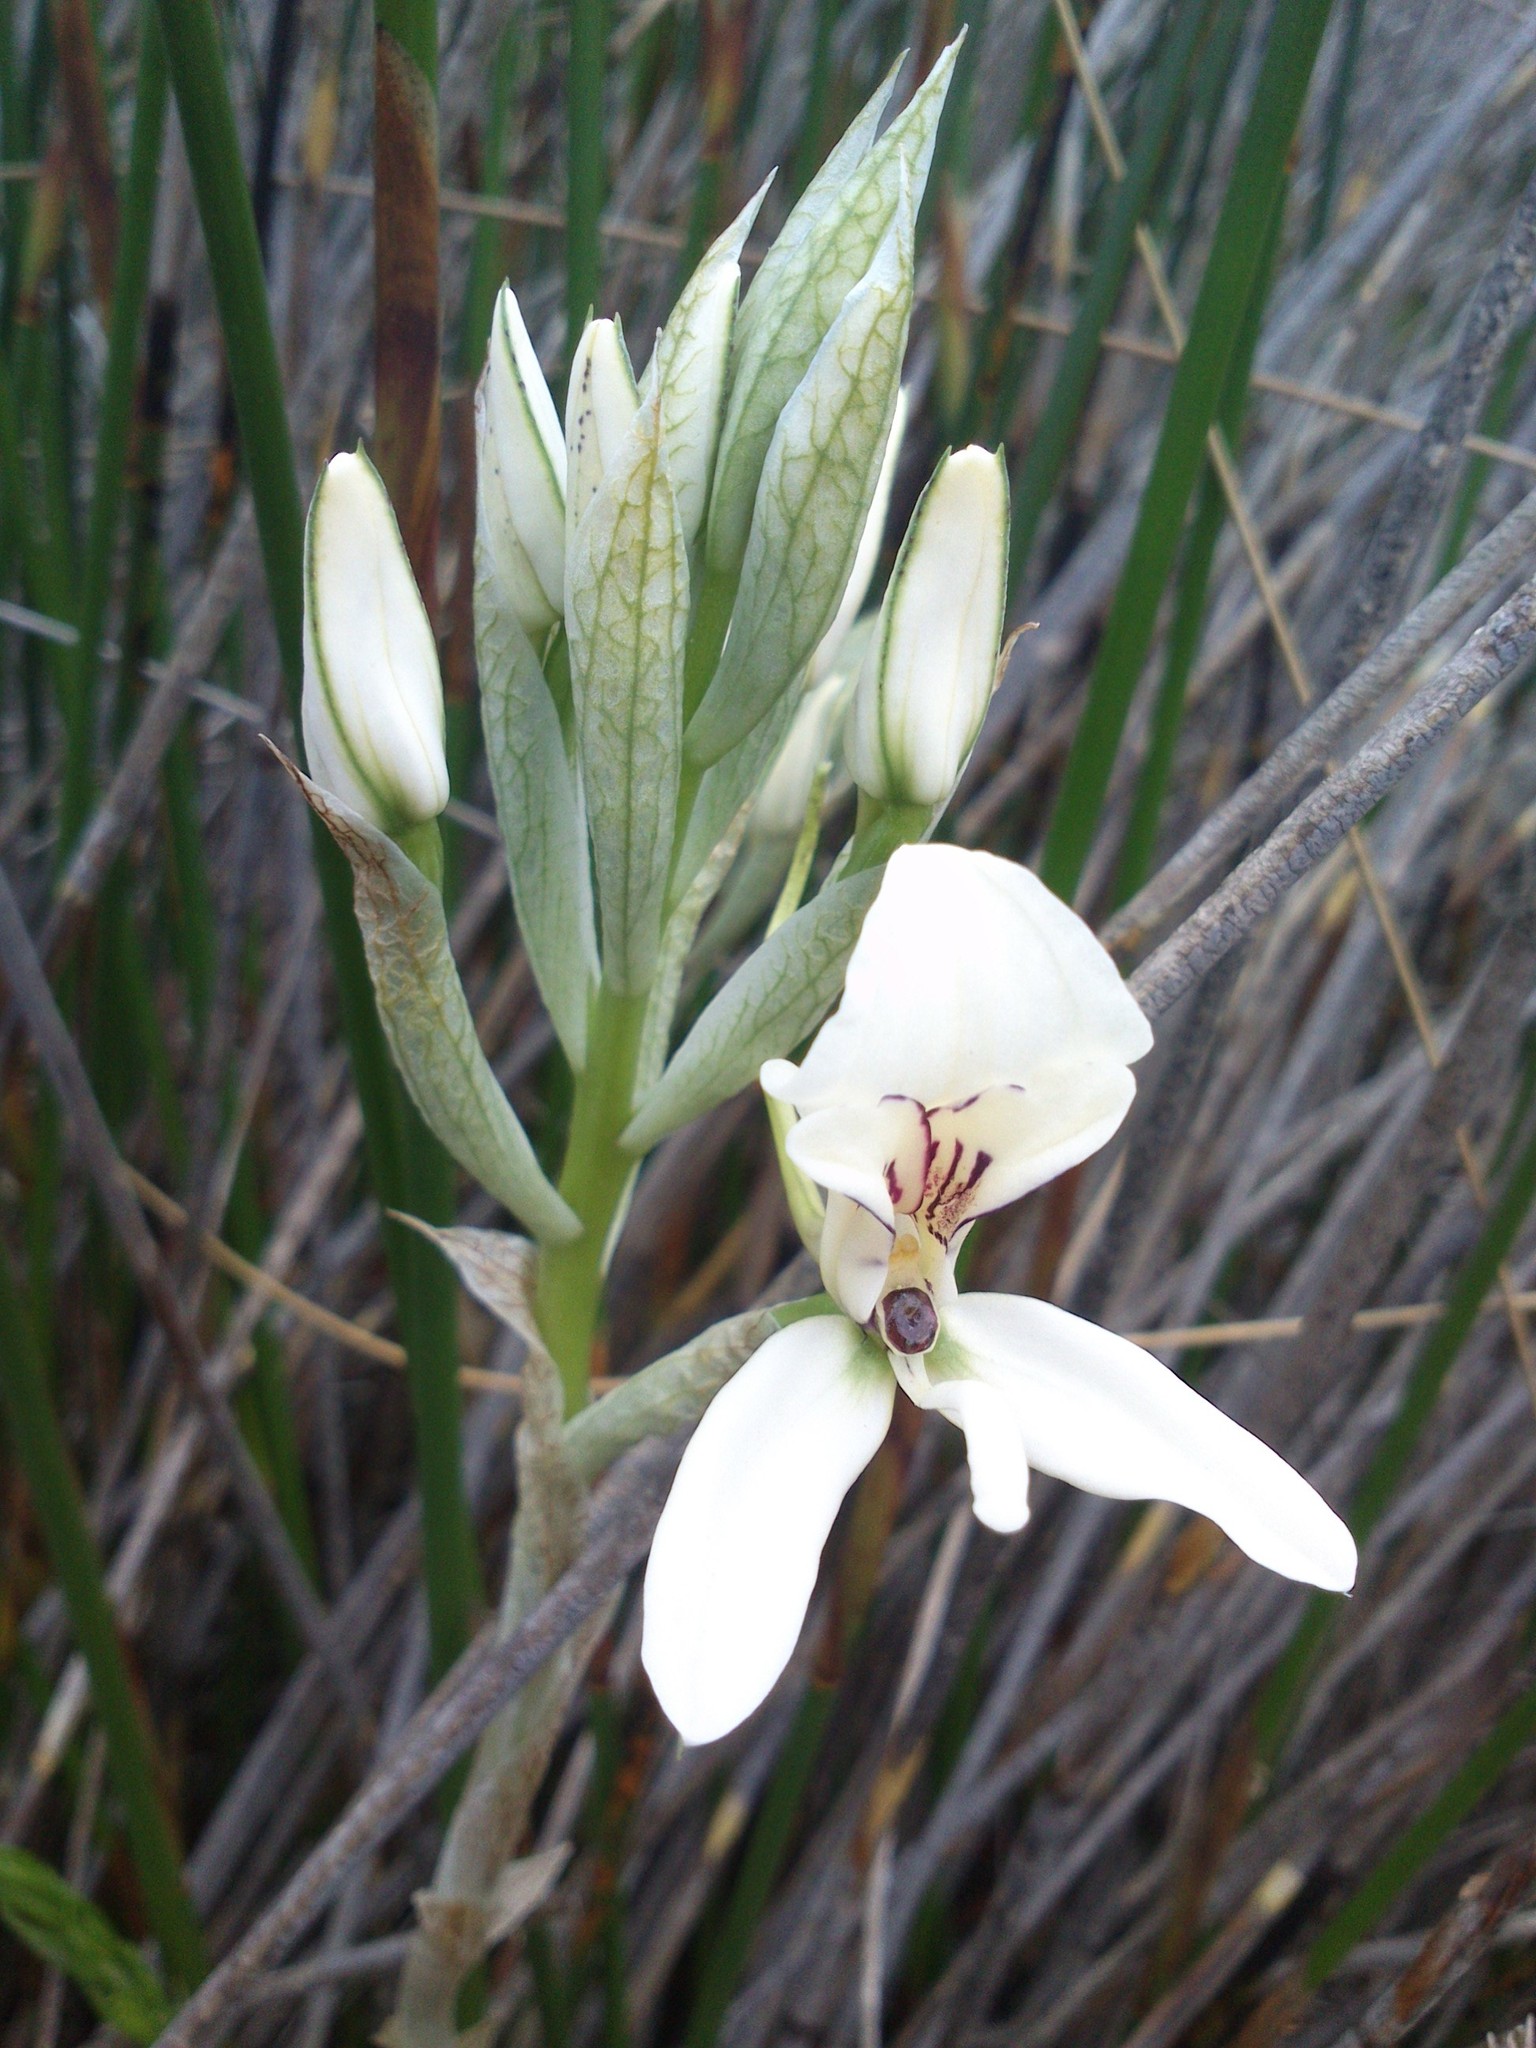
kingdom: Plantae
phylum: Tracheophyta
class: Liliopsida
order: Asparagales
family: Orchidaceae
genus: Disa
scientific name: Disa draconis
